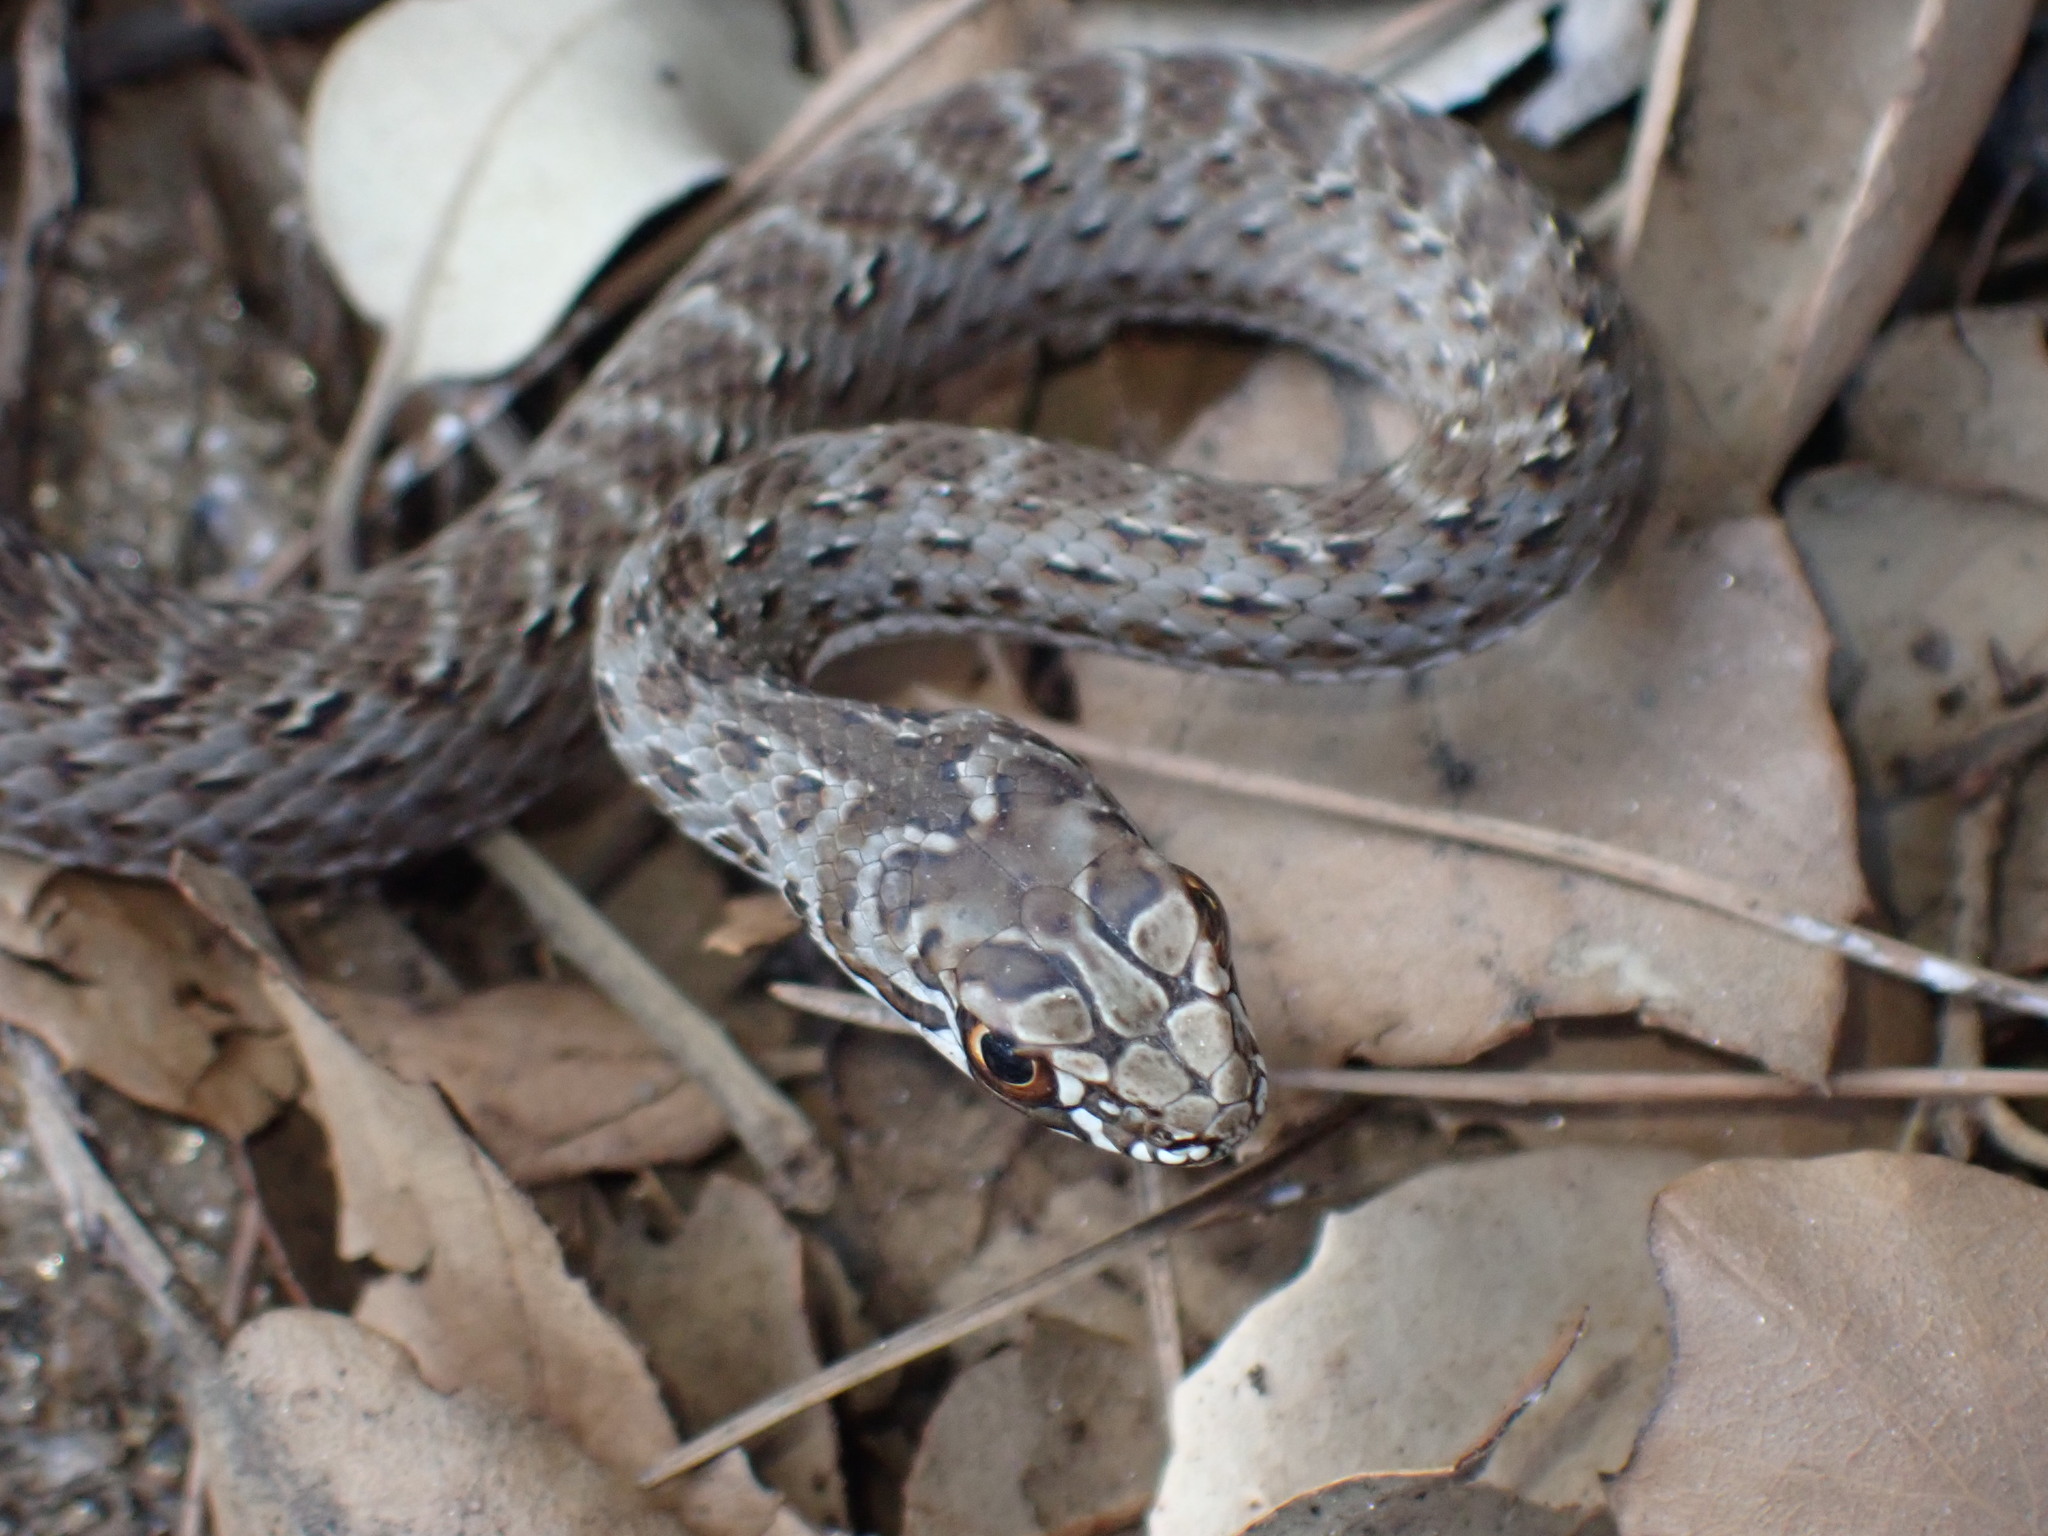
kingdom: Animalia
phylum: Chordata
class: Squamata
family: Psammophiidae
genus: Malpolon
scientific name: Malpolon monspessulanus
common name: Montpellier snake
